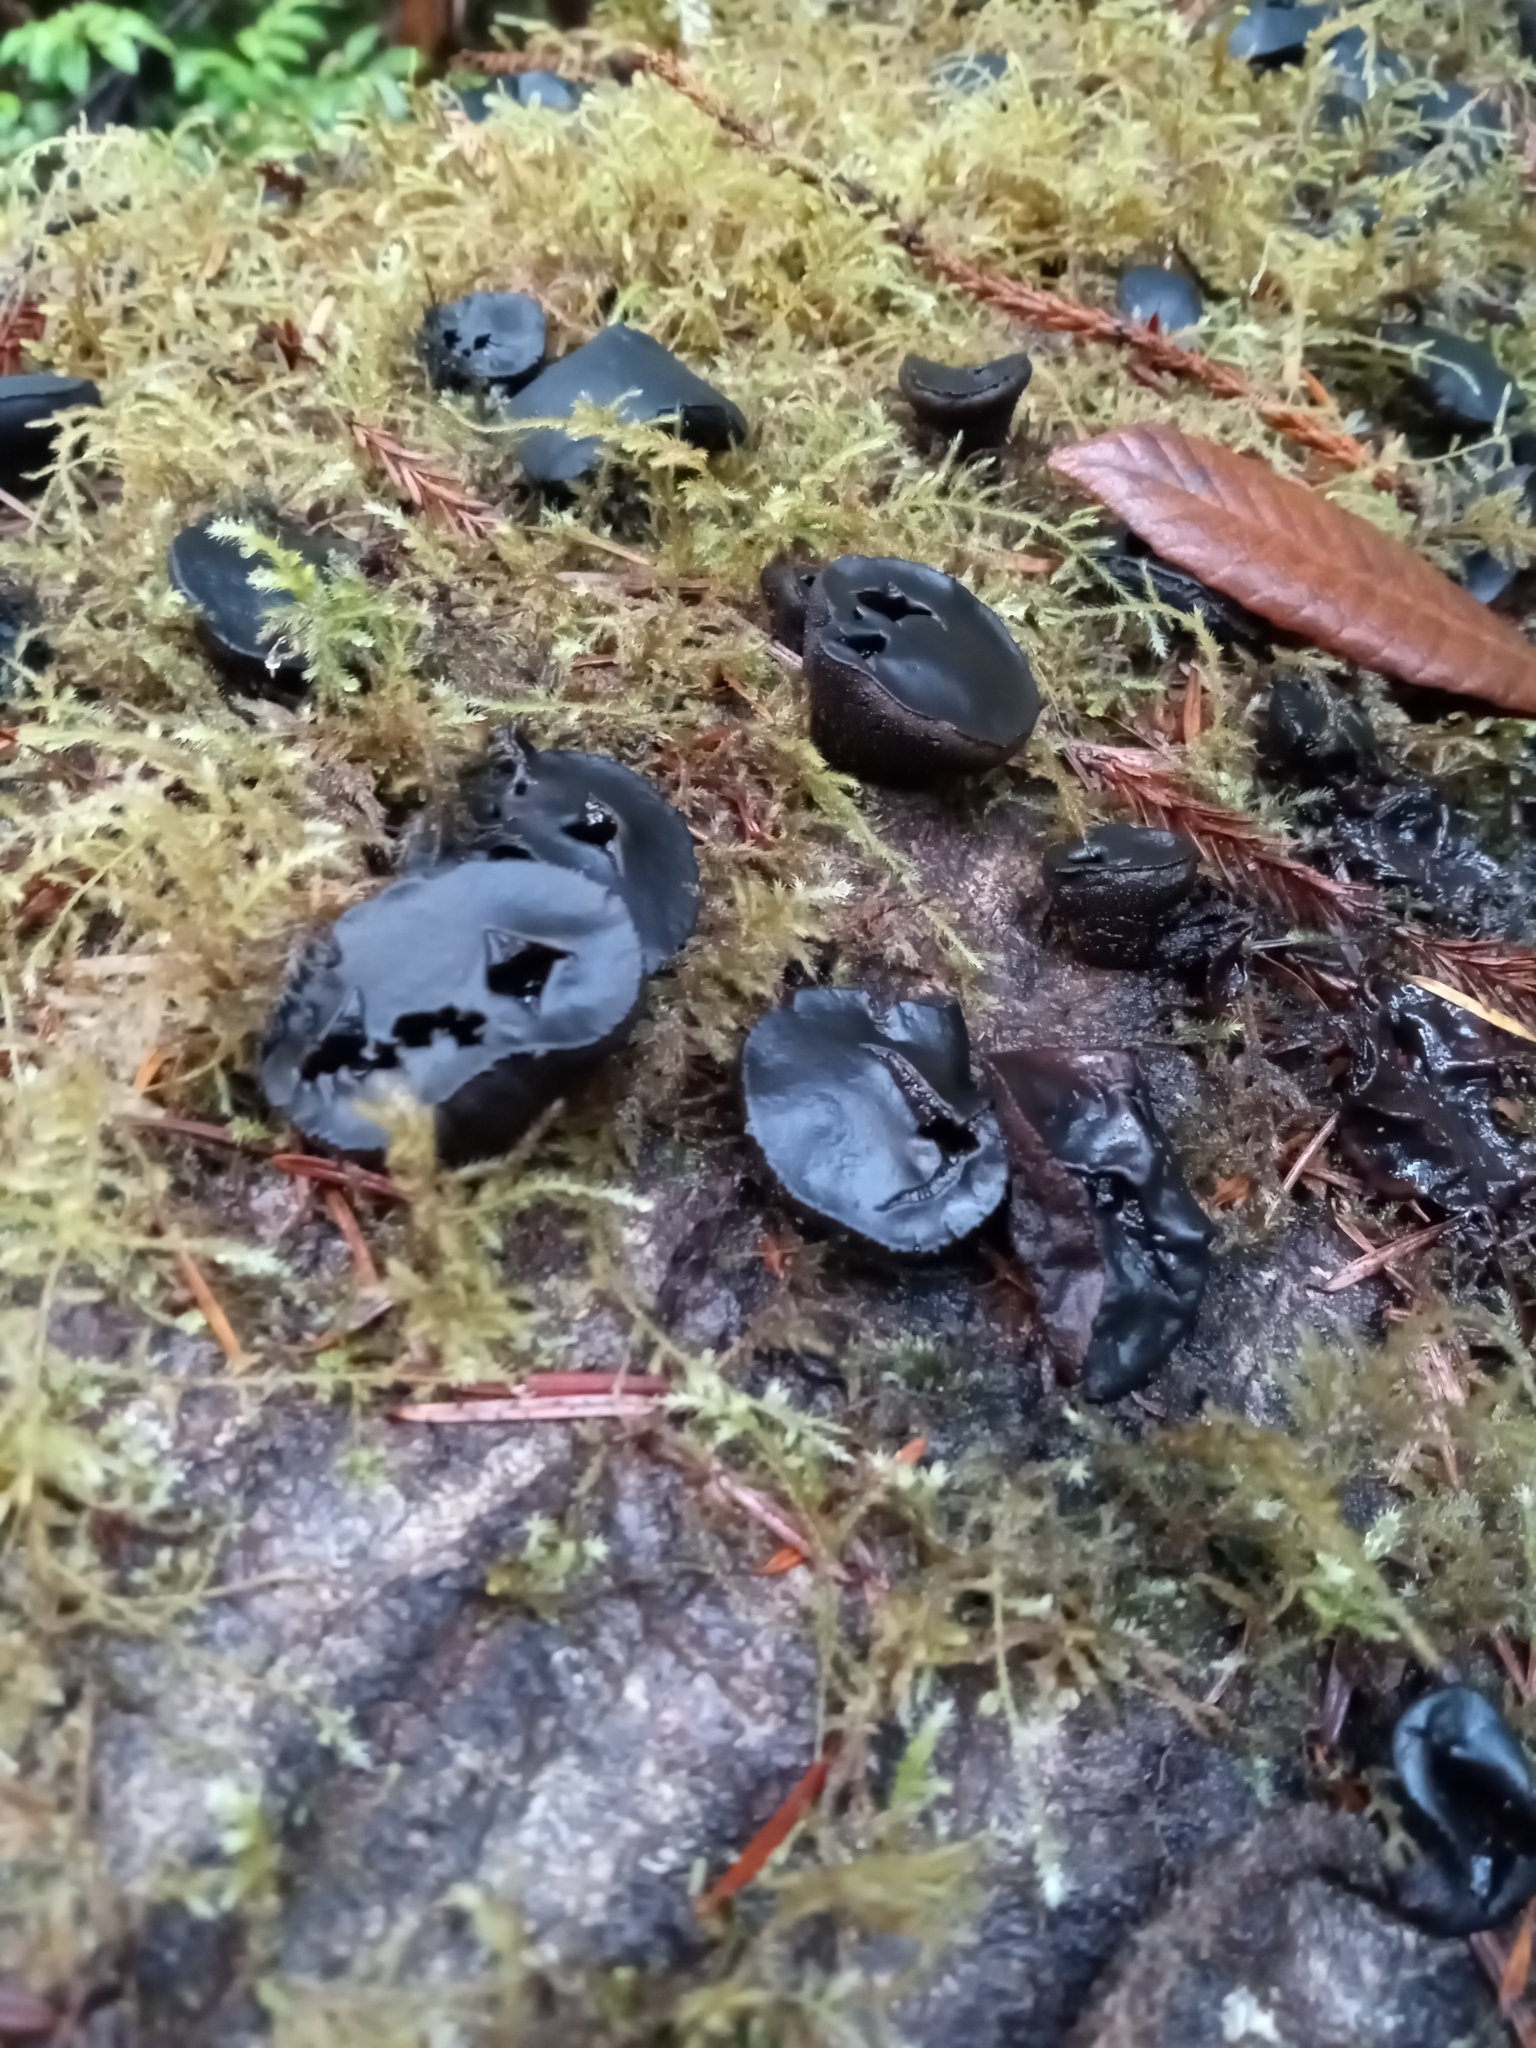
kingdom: Fungi
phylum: Ascomycota
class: Leotiomycetes
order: Phacidiales
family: Phacidiaceae
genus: Bulgaria
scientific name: Bulgaria inquinans
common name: Black bulgar
